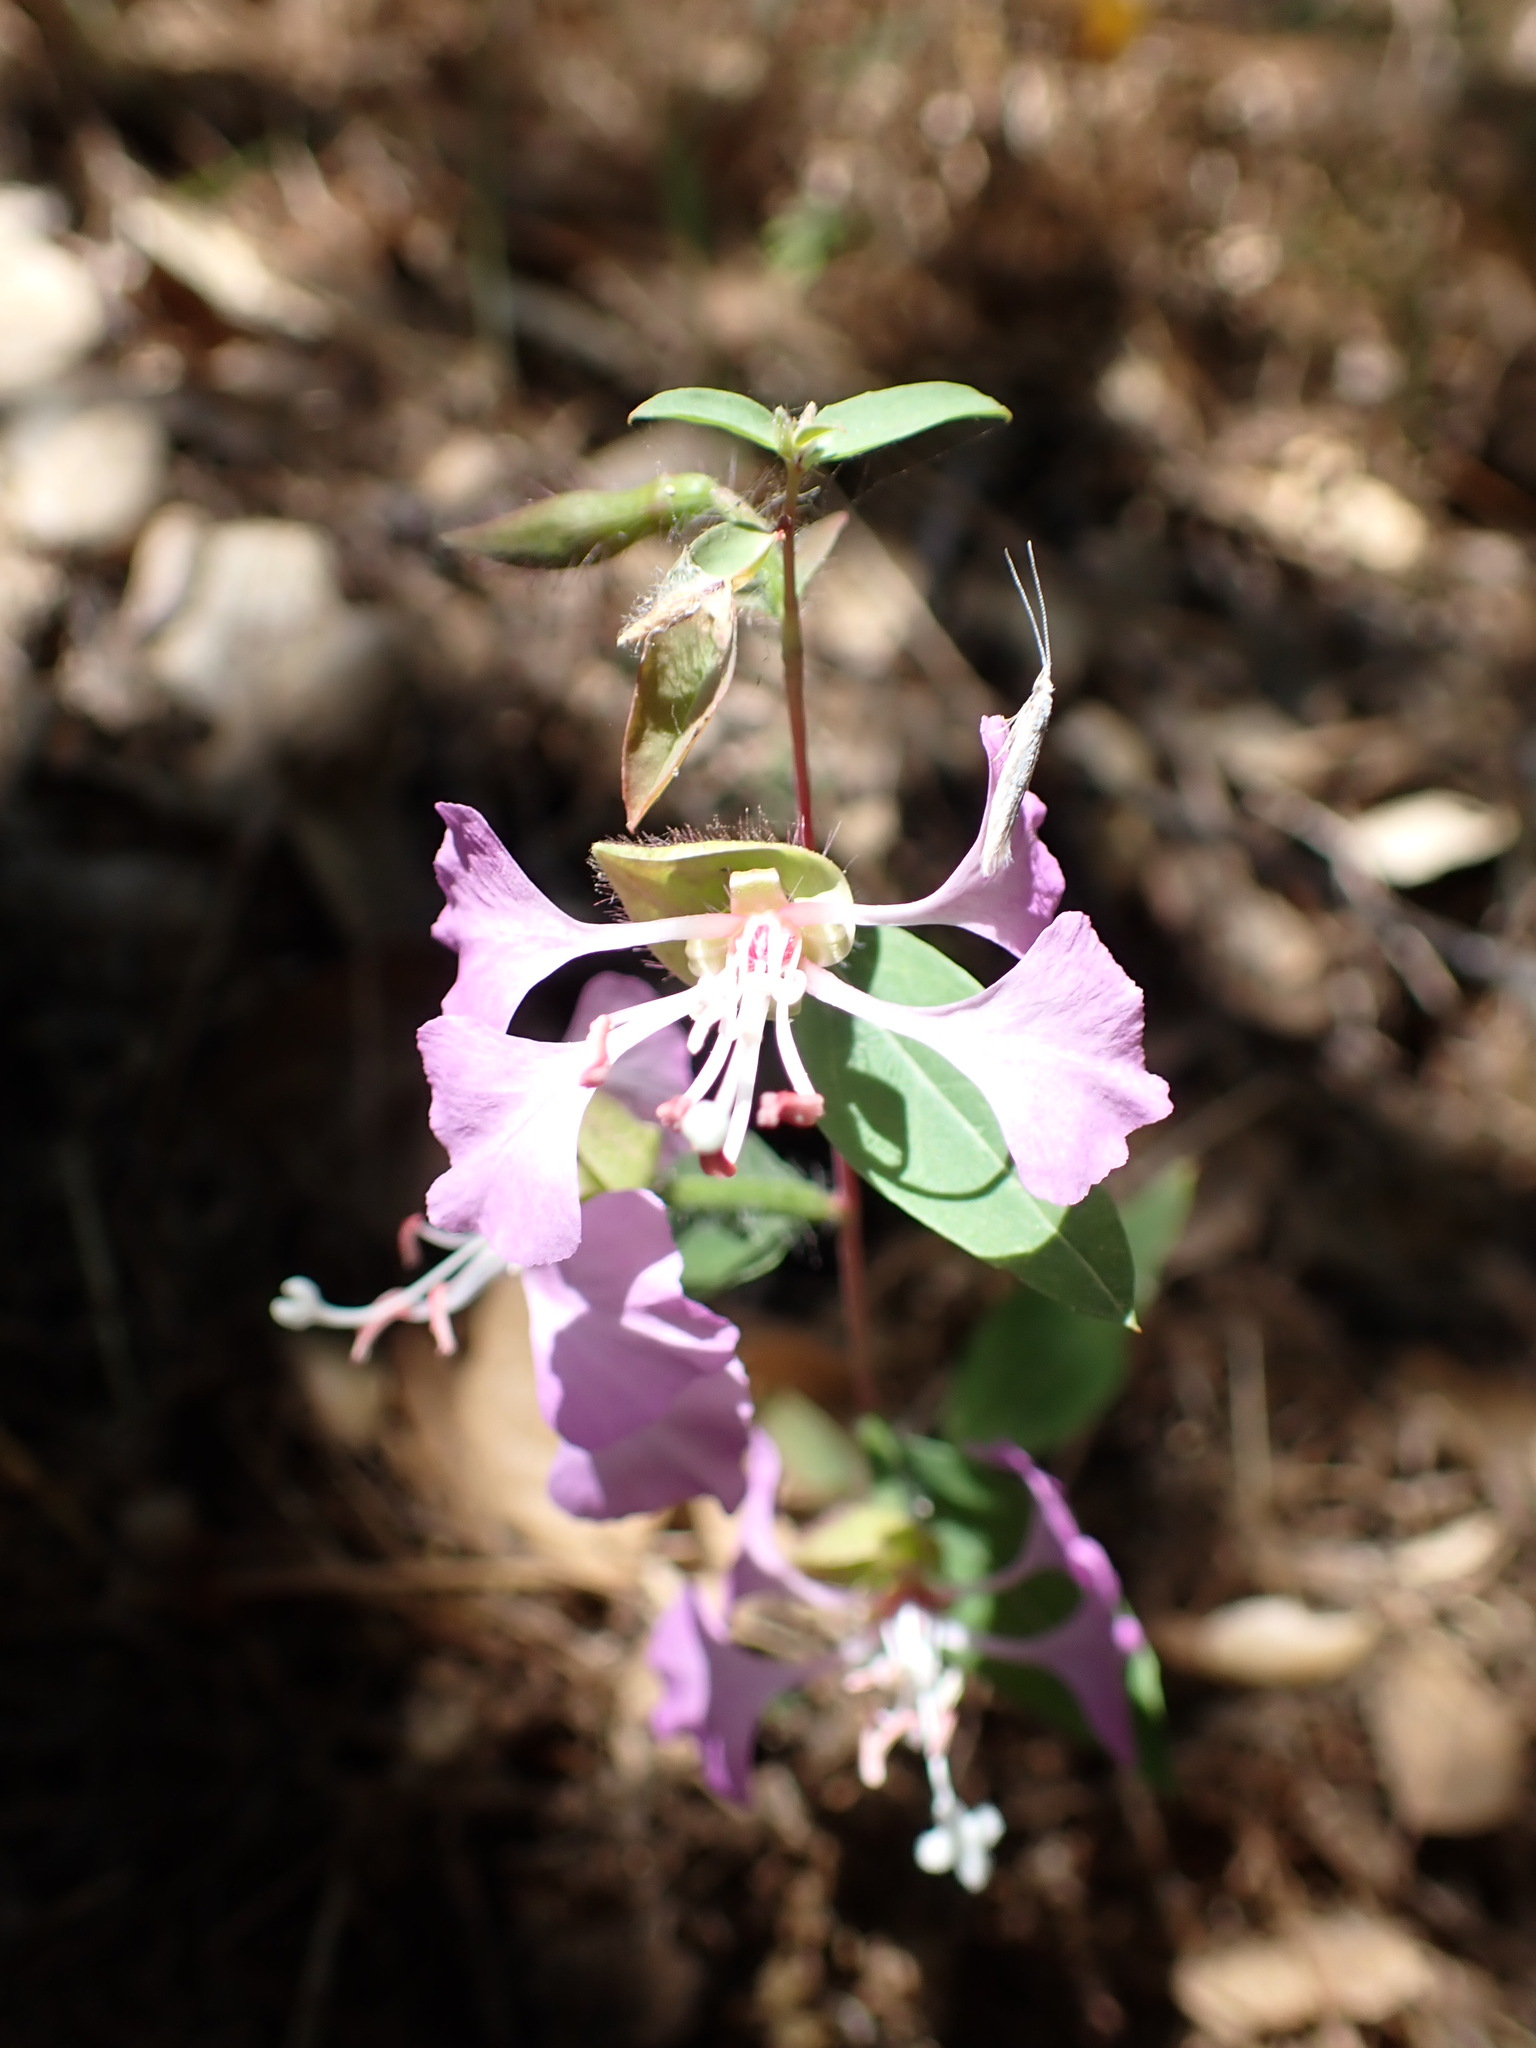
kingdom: Plantae
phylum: Tracheophyta
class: Magnoliopsida
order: Myrtales
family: Onagraceae
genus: Clarkia
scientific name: Clarkia unguiculata
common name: Clarkia
